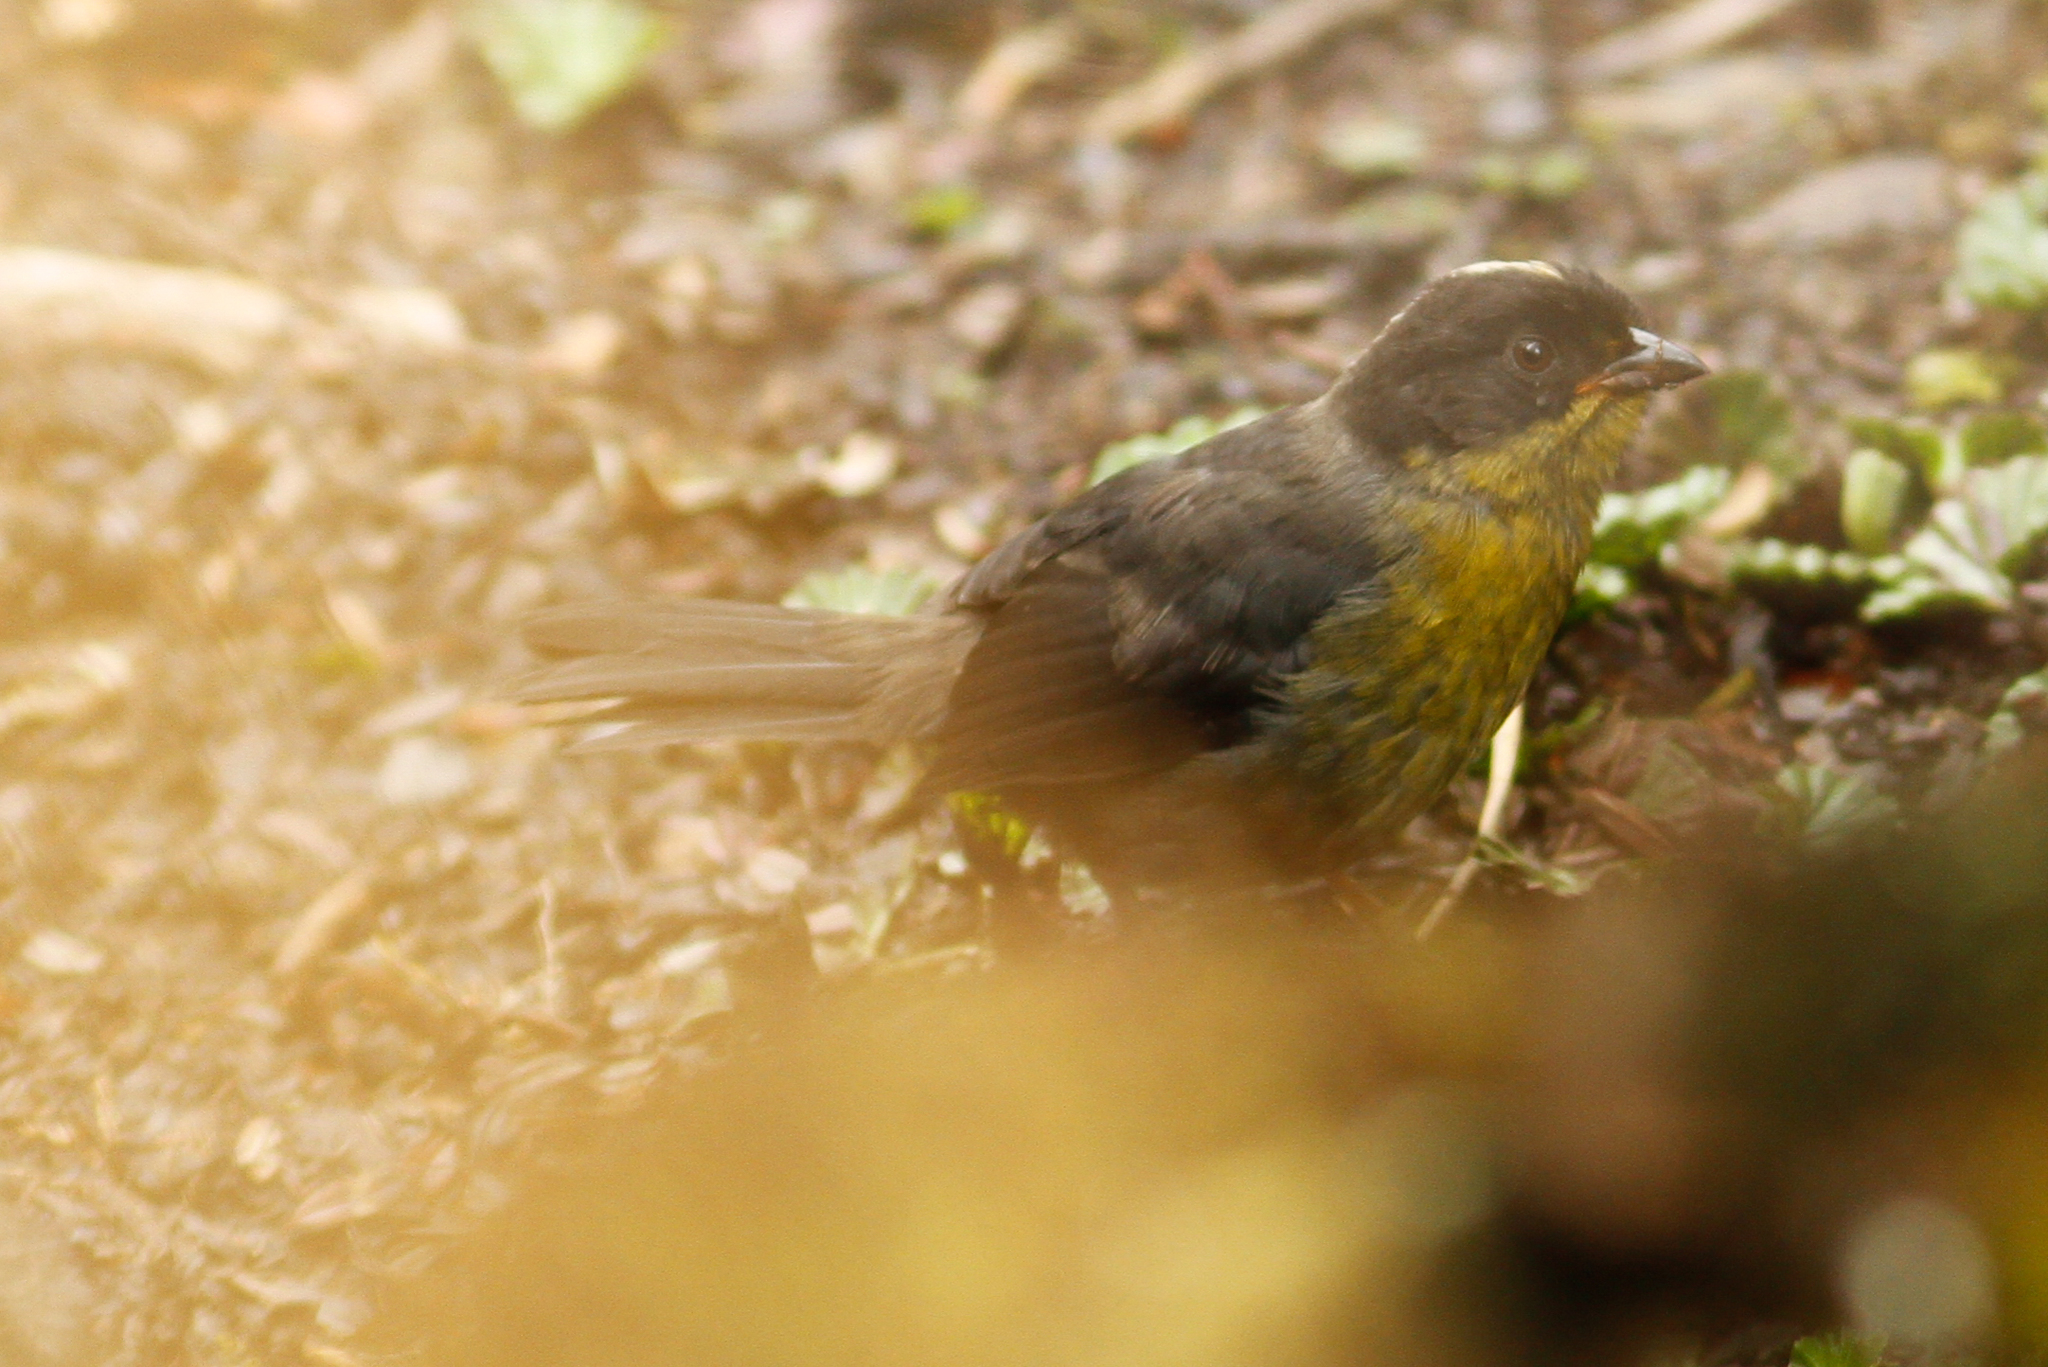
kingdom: Animalia
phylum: Chordata
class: Aves
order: Passeriformes
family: Passerellidae
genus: Atlapetes
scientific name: Atlapetes pallidinucha
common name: Pale-naped brushfinch
